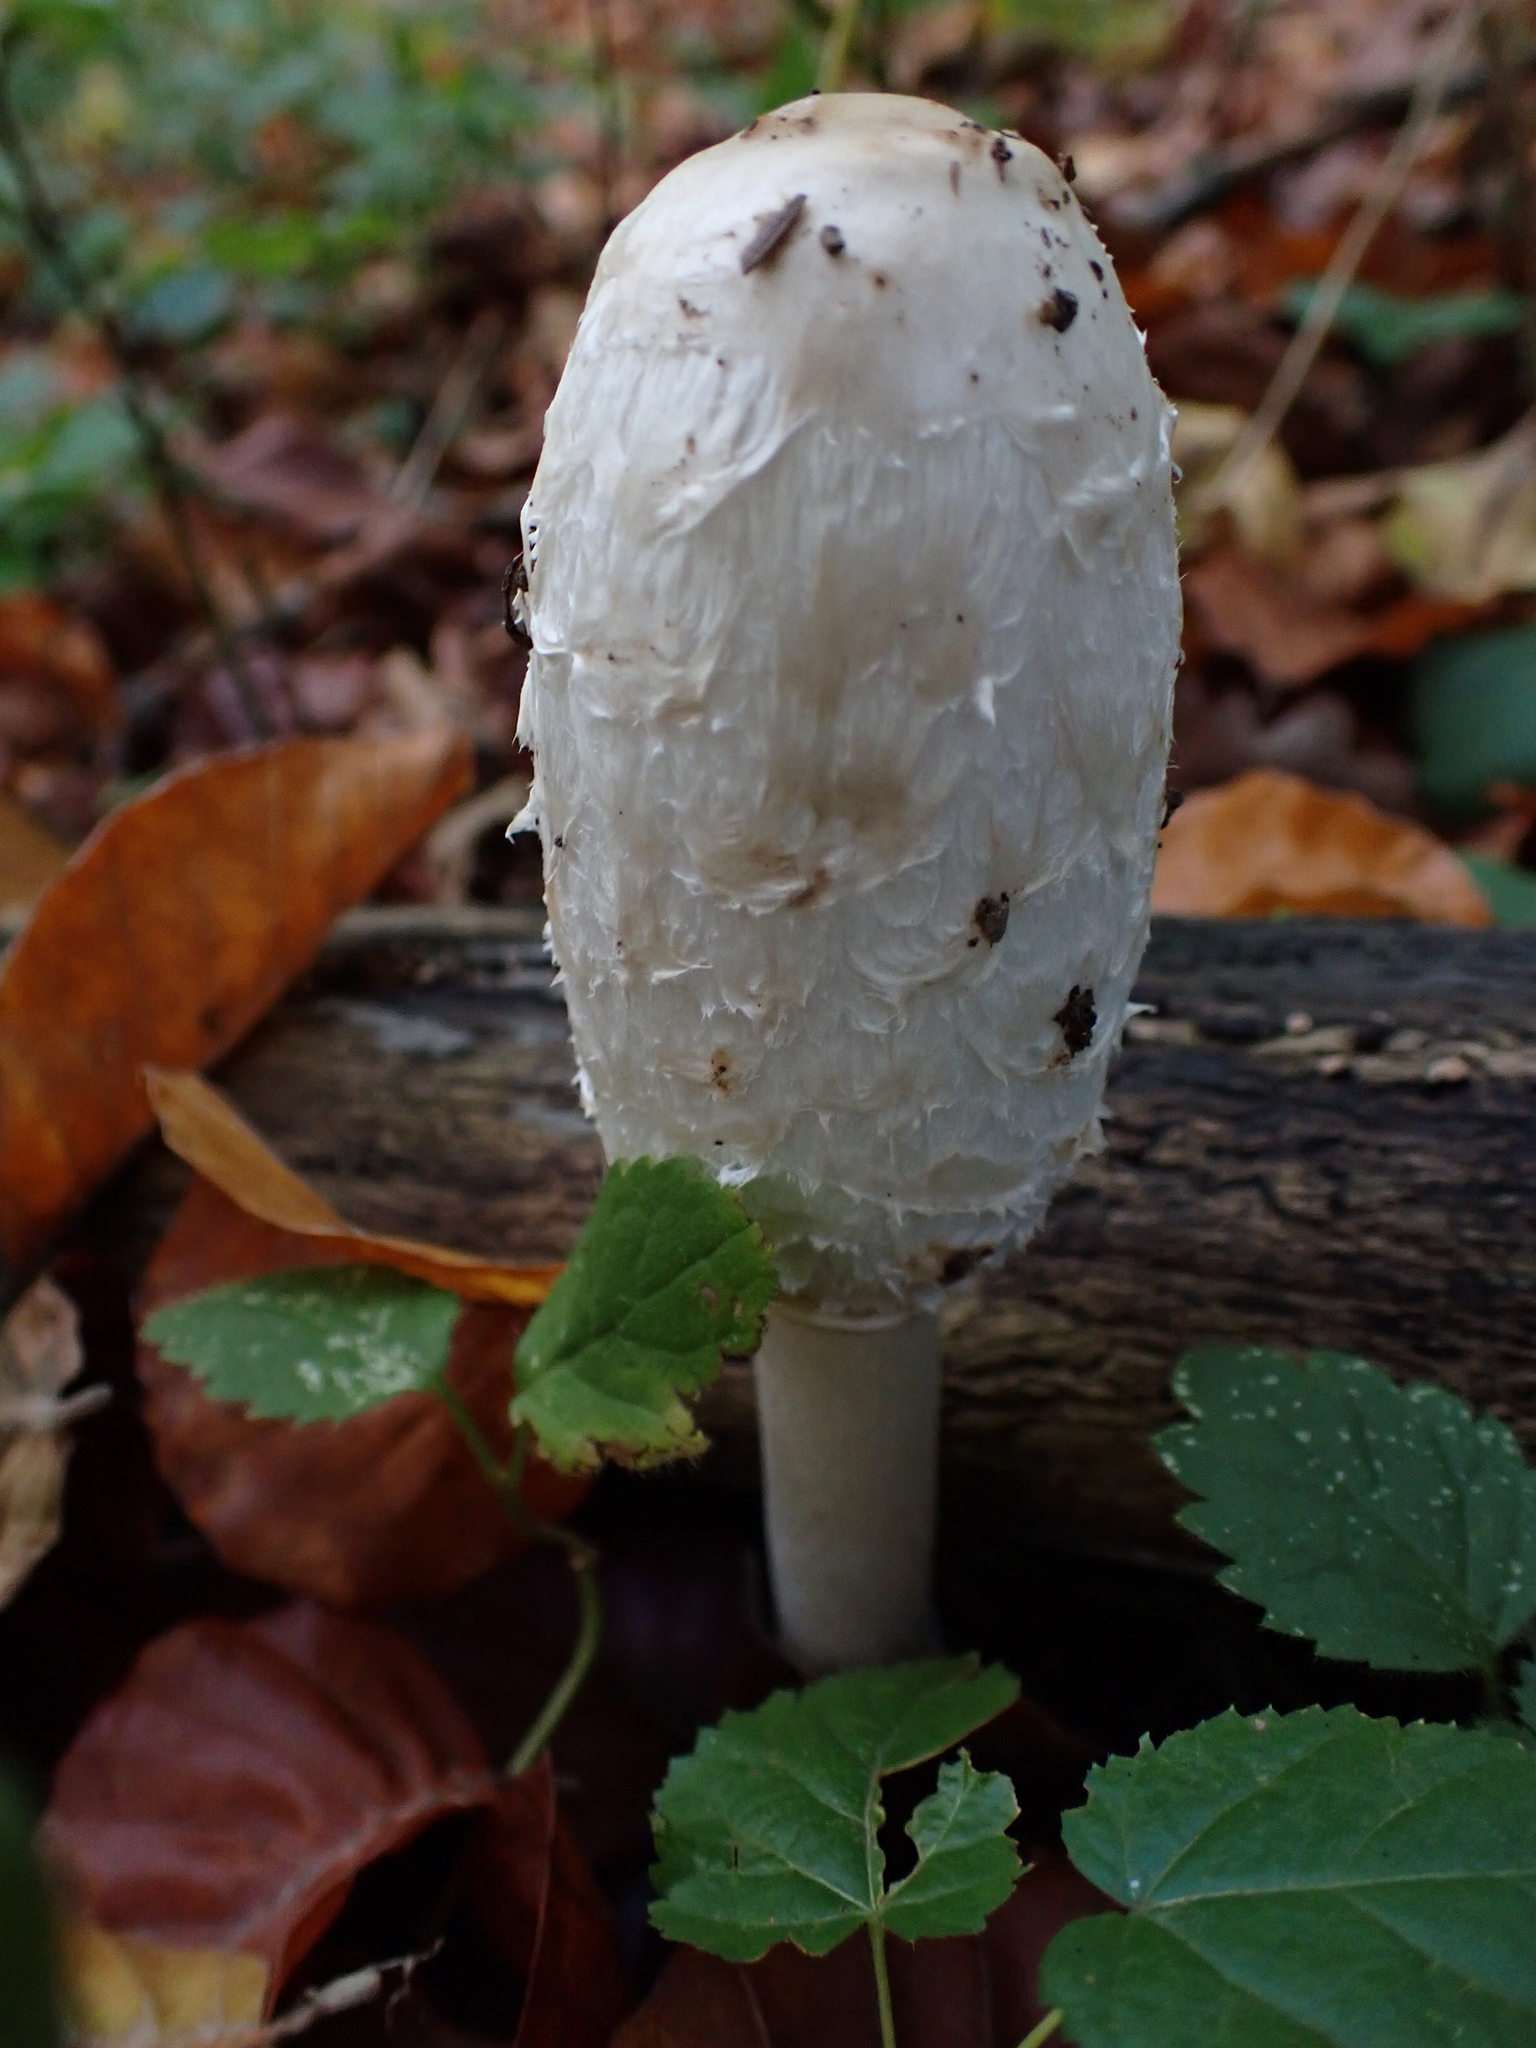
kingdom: Fungi
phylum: Basidiomycota
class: Agaricomycetes
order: Agaricales
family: Agaricaceae
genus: Coprinus
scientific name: Coprinus comatus
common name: Lawyer's wig
